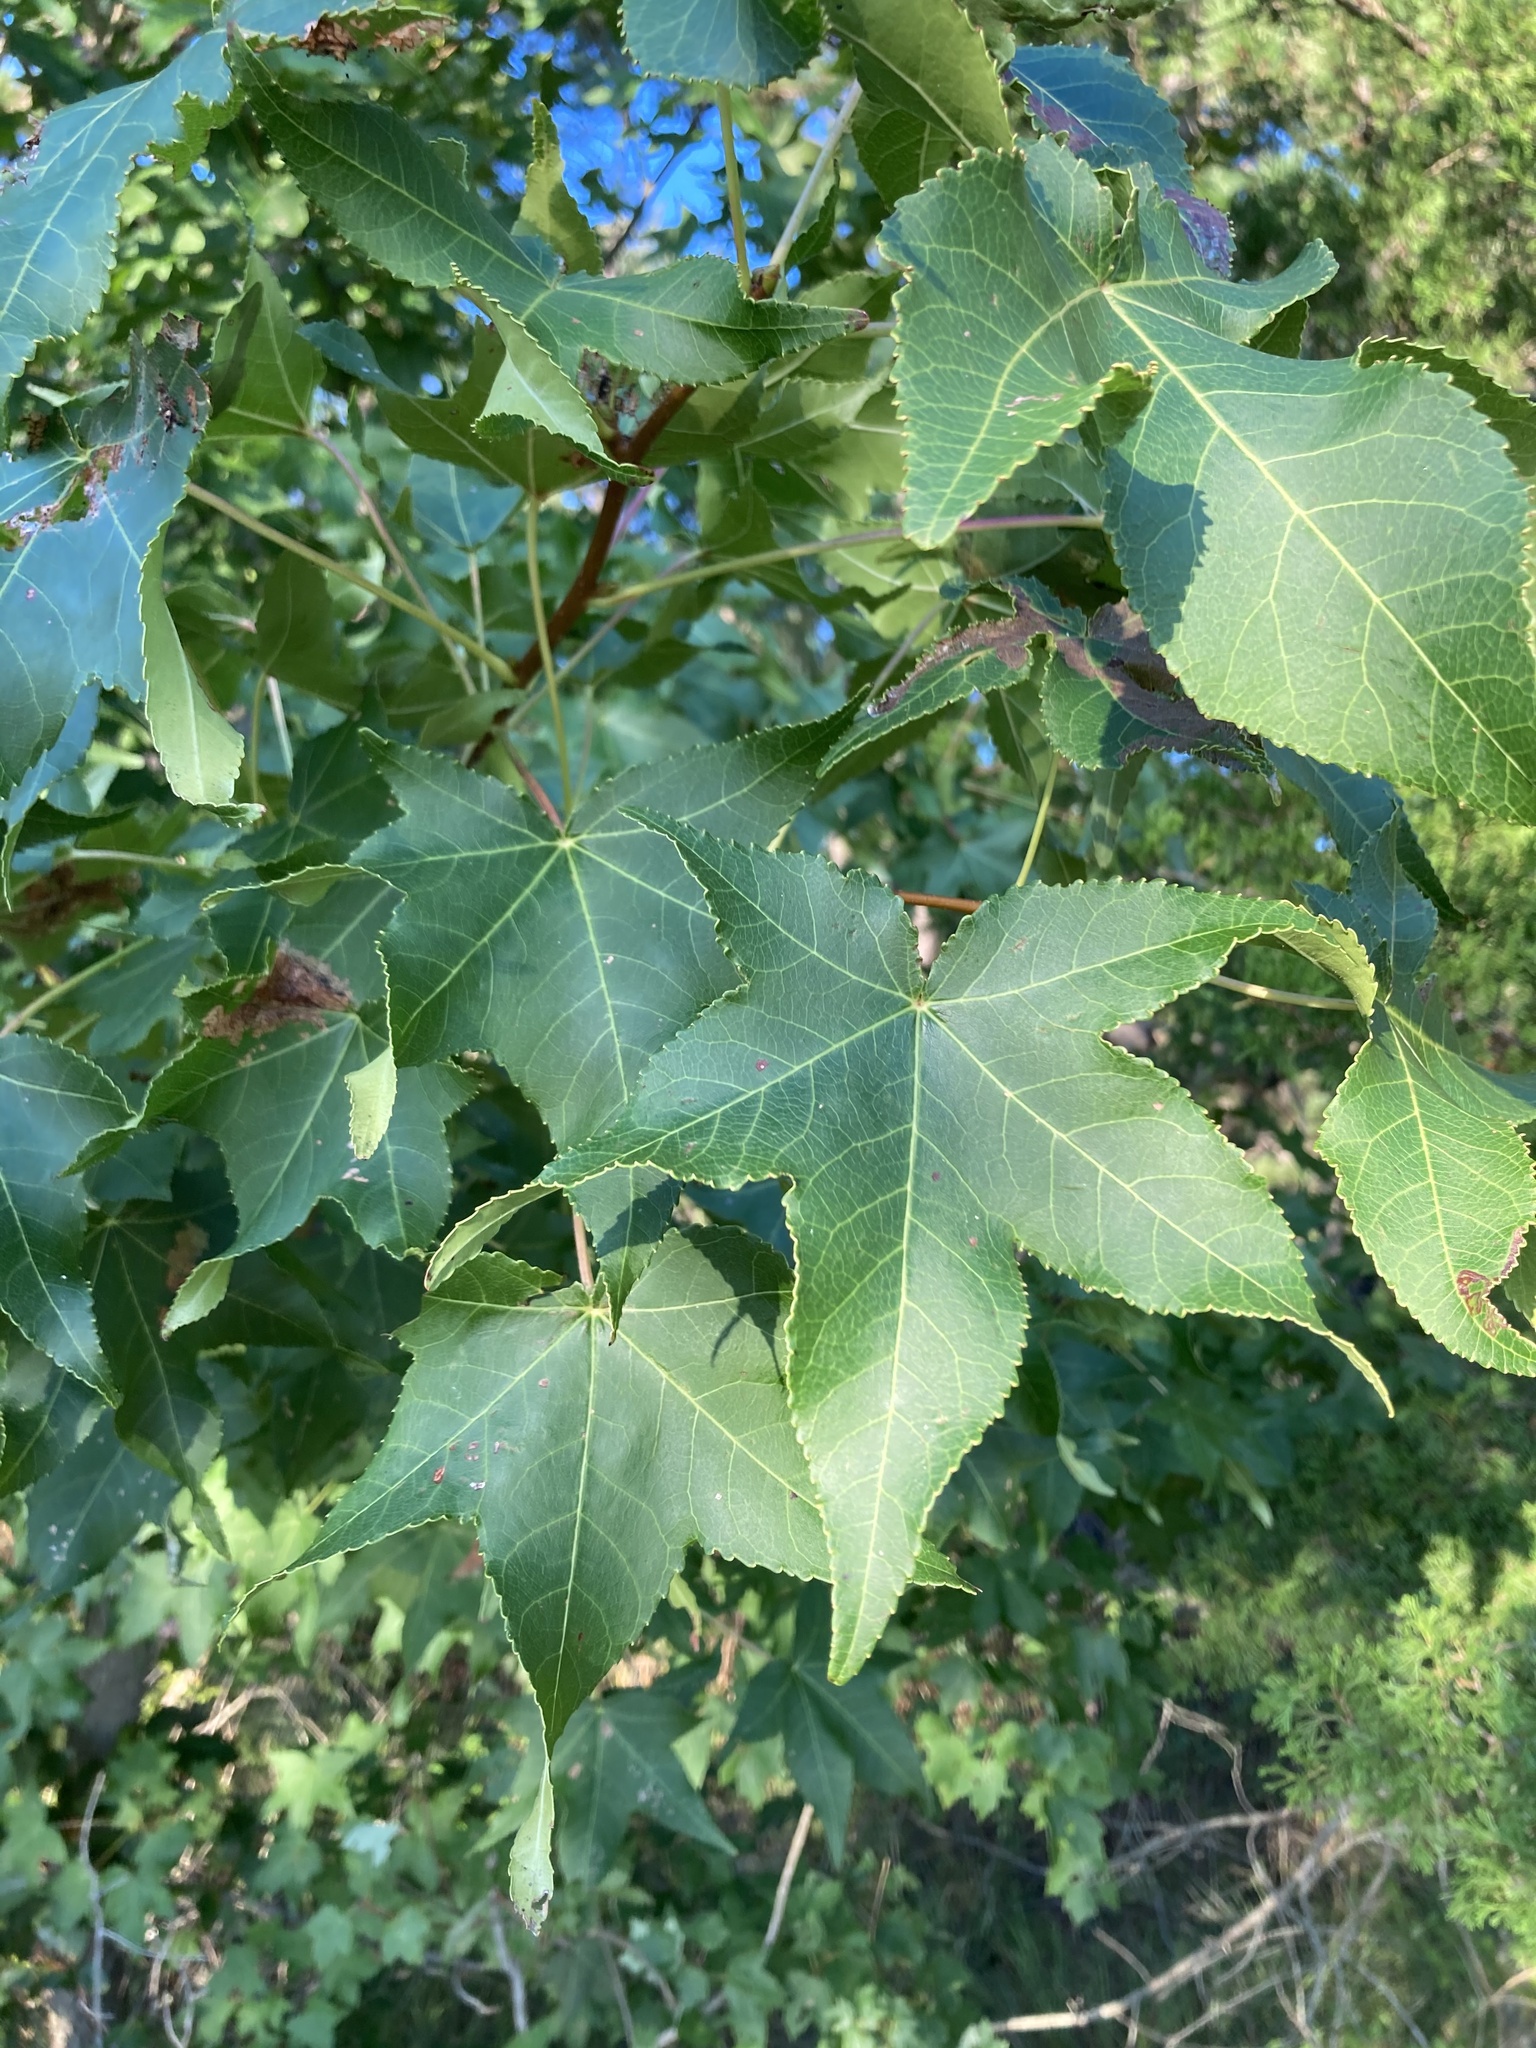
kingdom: Plantae
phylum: Tracheophyta
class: Magnoliopsida
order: Saxifragales
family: Altingiaceae
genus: Liquidambar
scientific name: Liquidambar styraciflua
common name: Sweet gum
